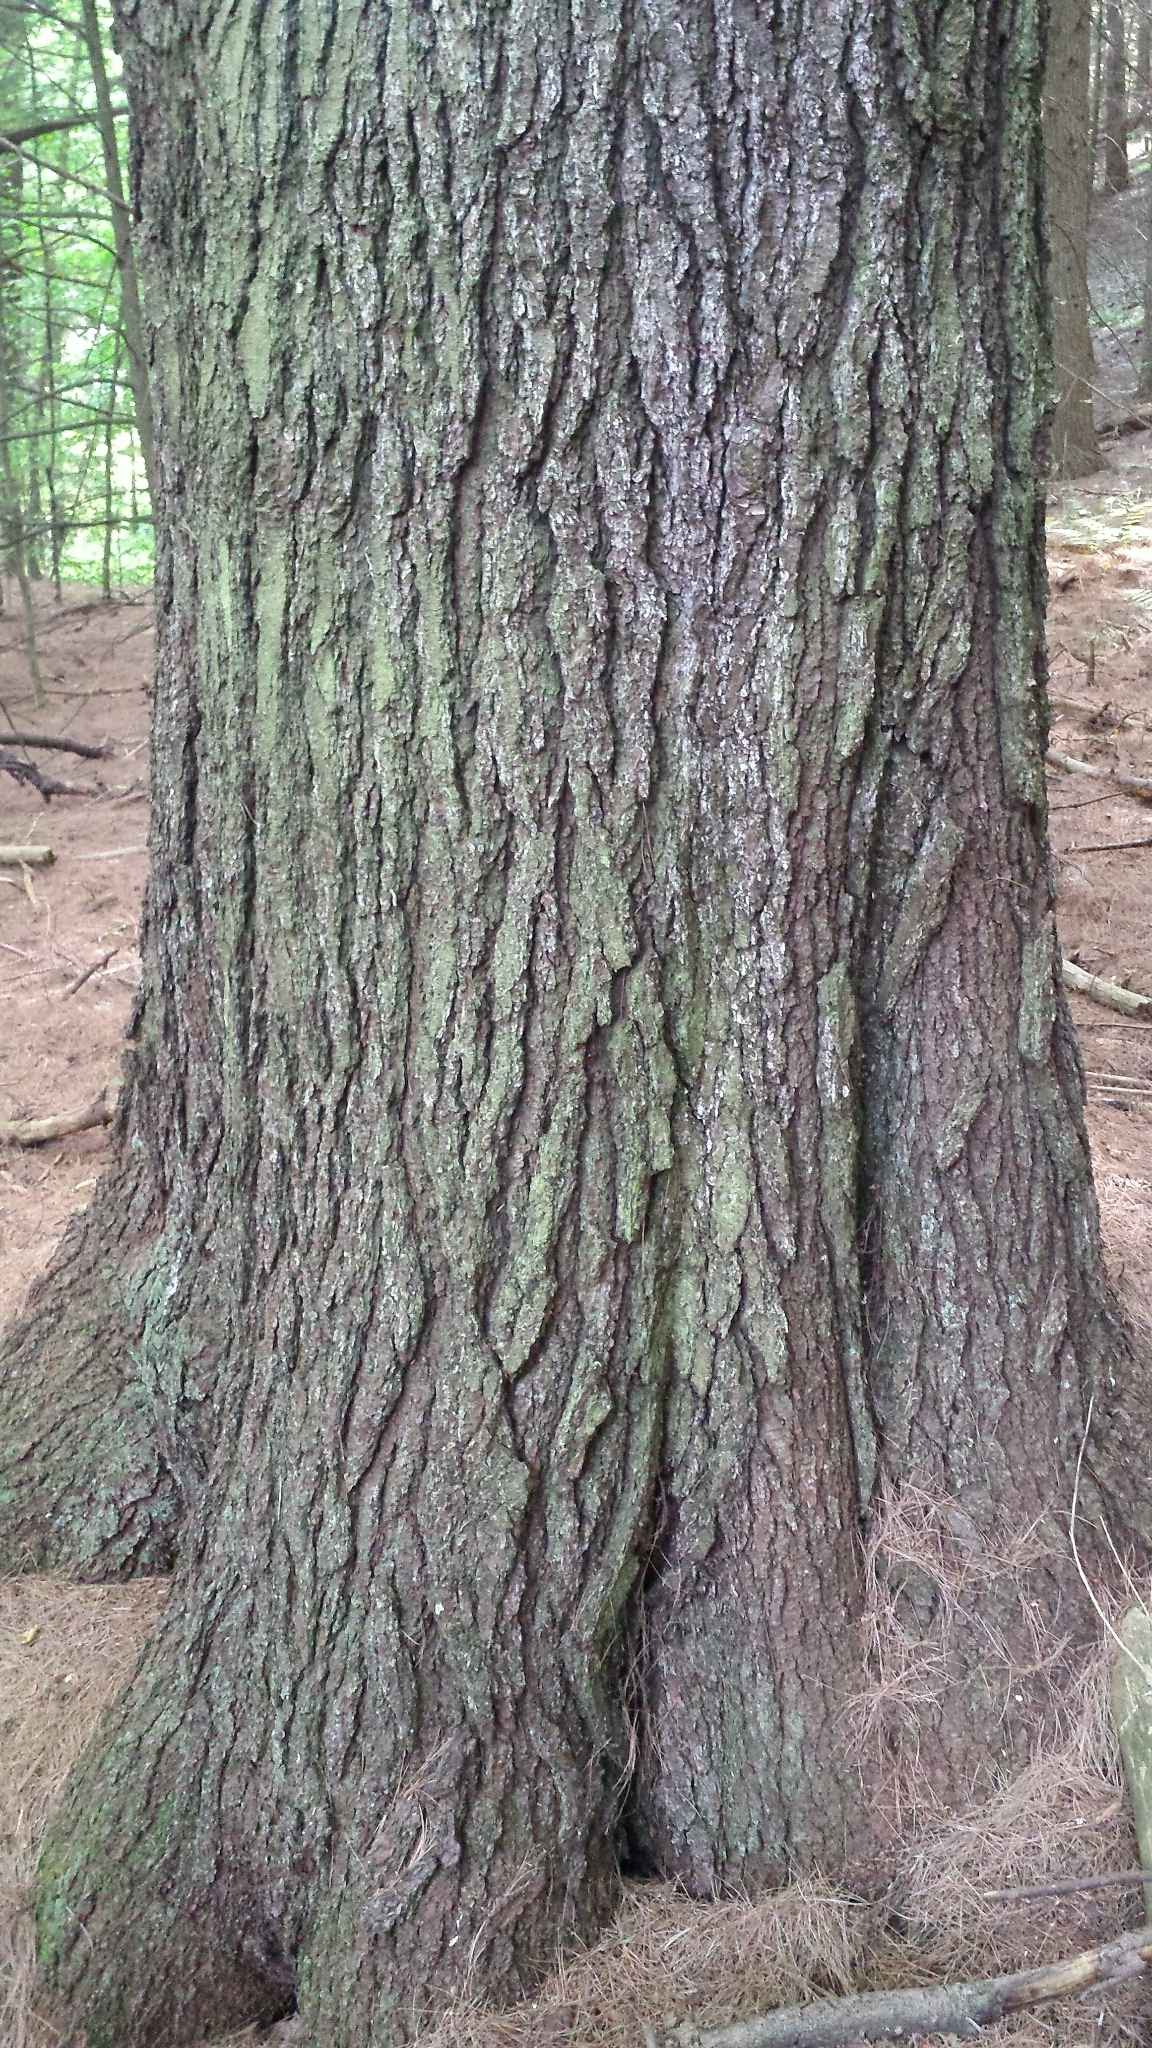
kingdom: Plantae
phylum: Tracheophyta
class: Pinopsida
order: Pinales
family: Pinaceae
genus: Pinus
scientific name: Pinus strobus
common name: Weymouth pine
